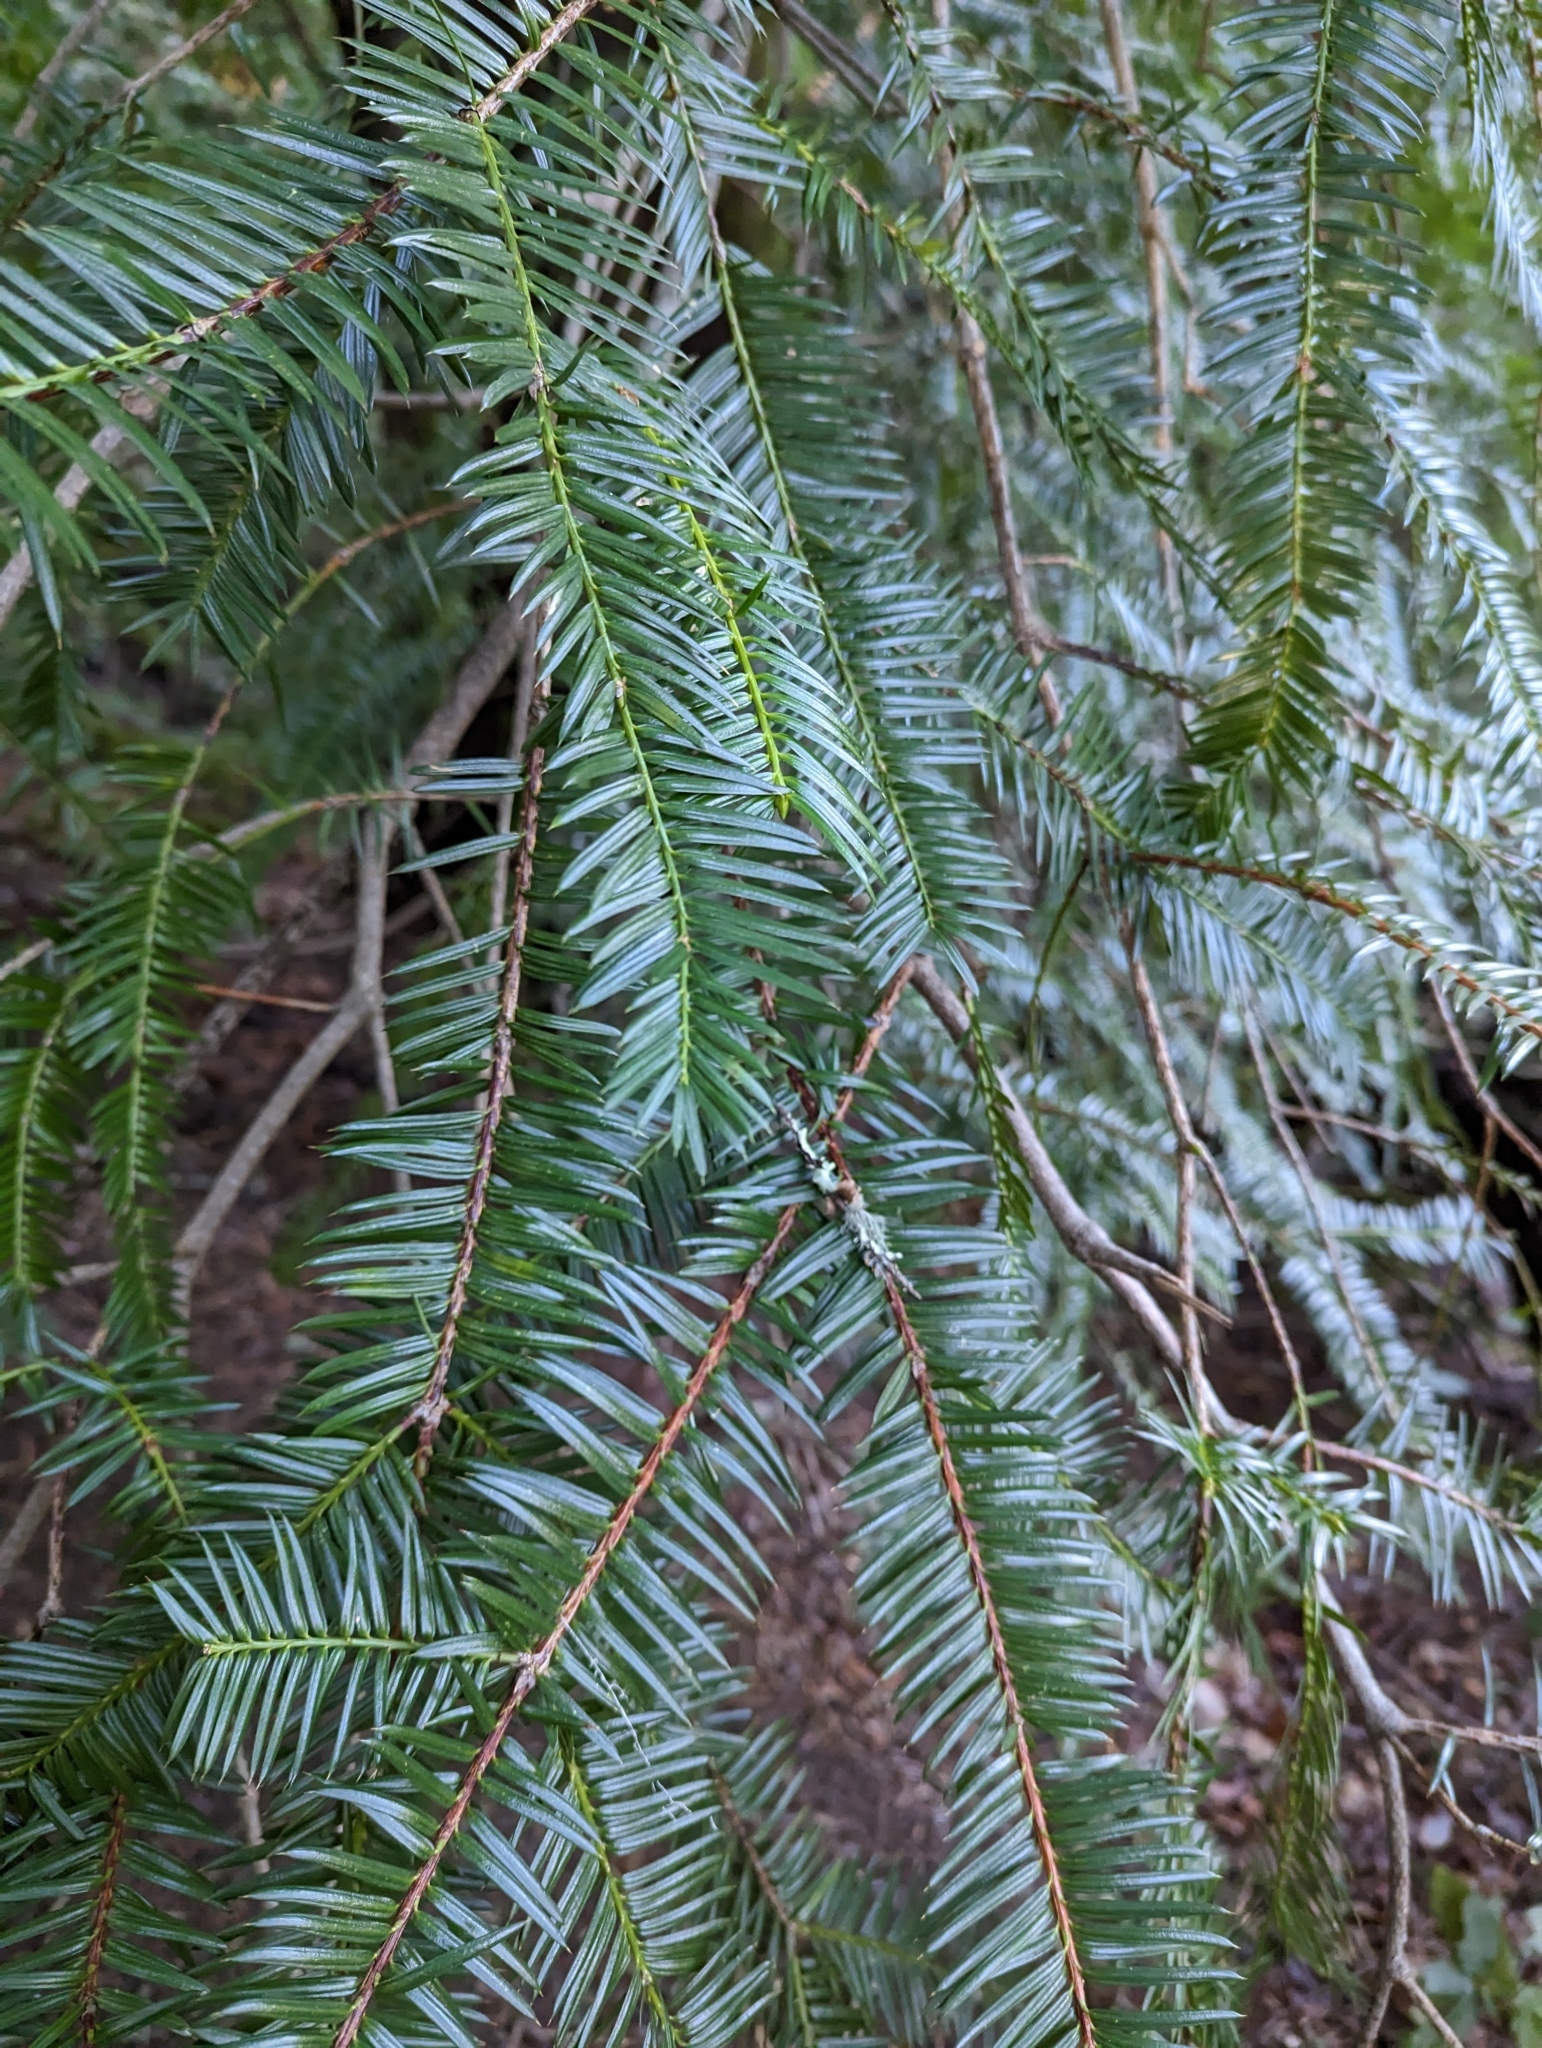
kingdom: Plantae
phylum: Tracheophyta
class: Pinopsida
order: Pinales
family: Taxaceae
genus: Torreya
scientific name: Torreya californica
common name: California torreya
